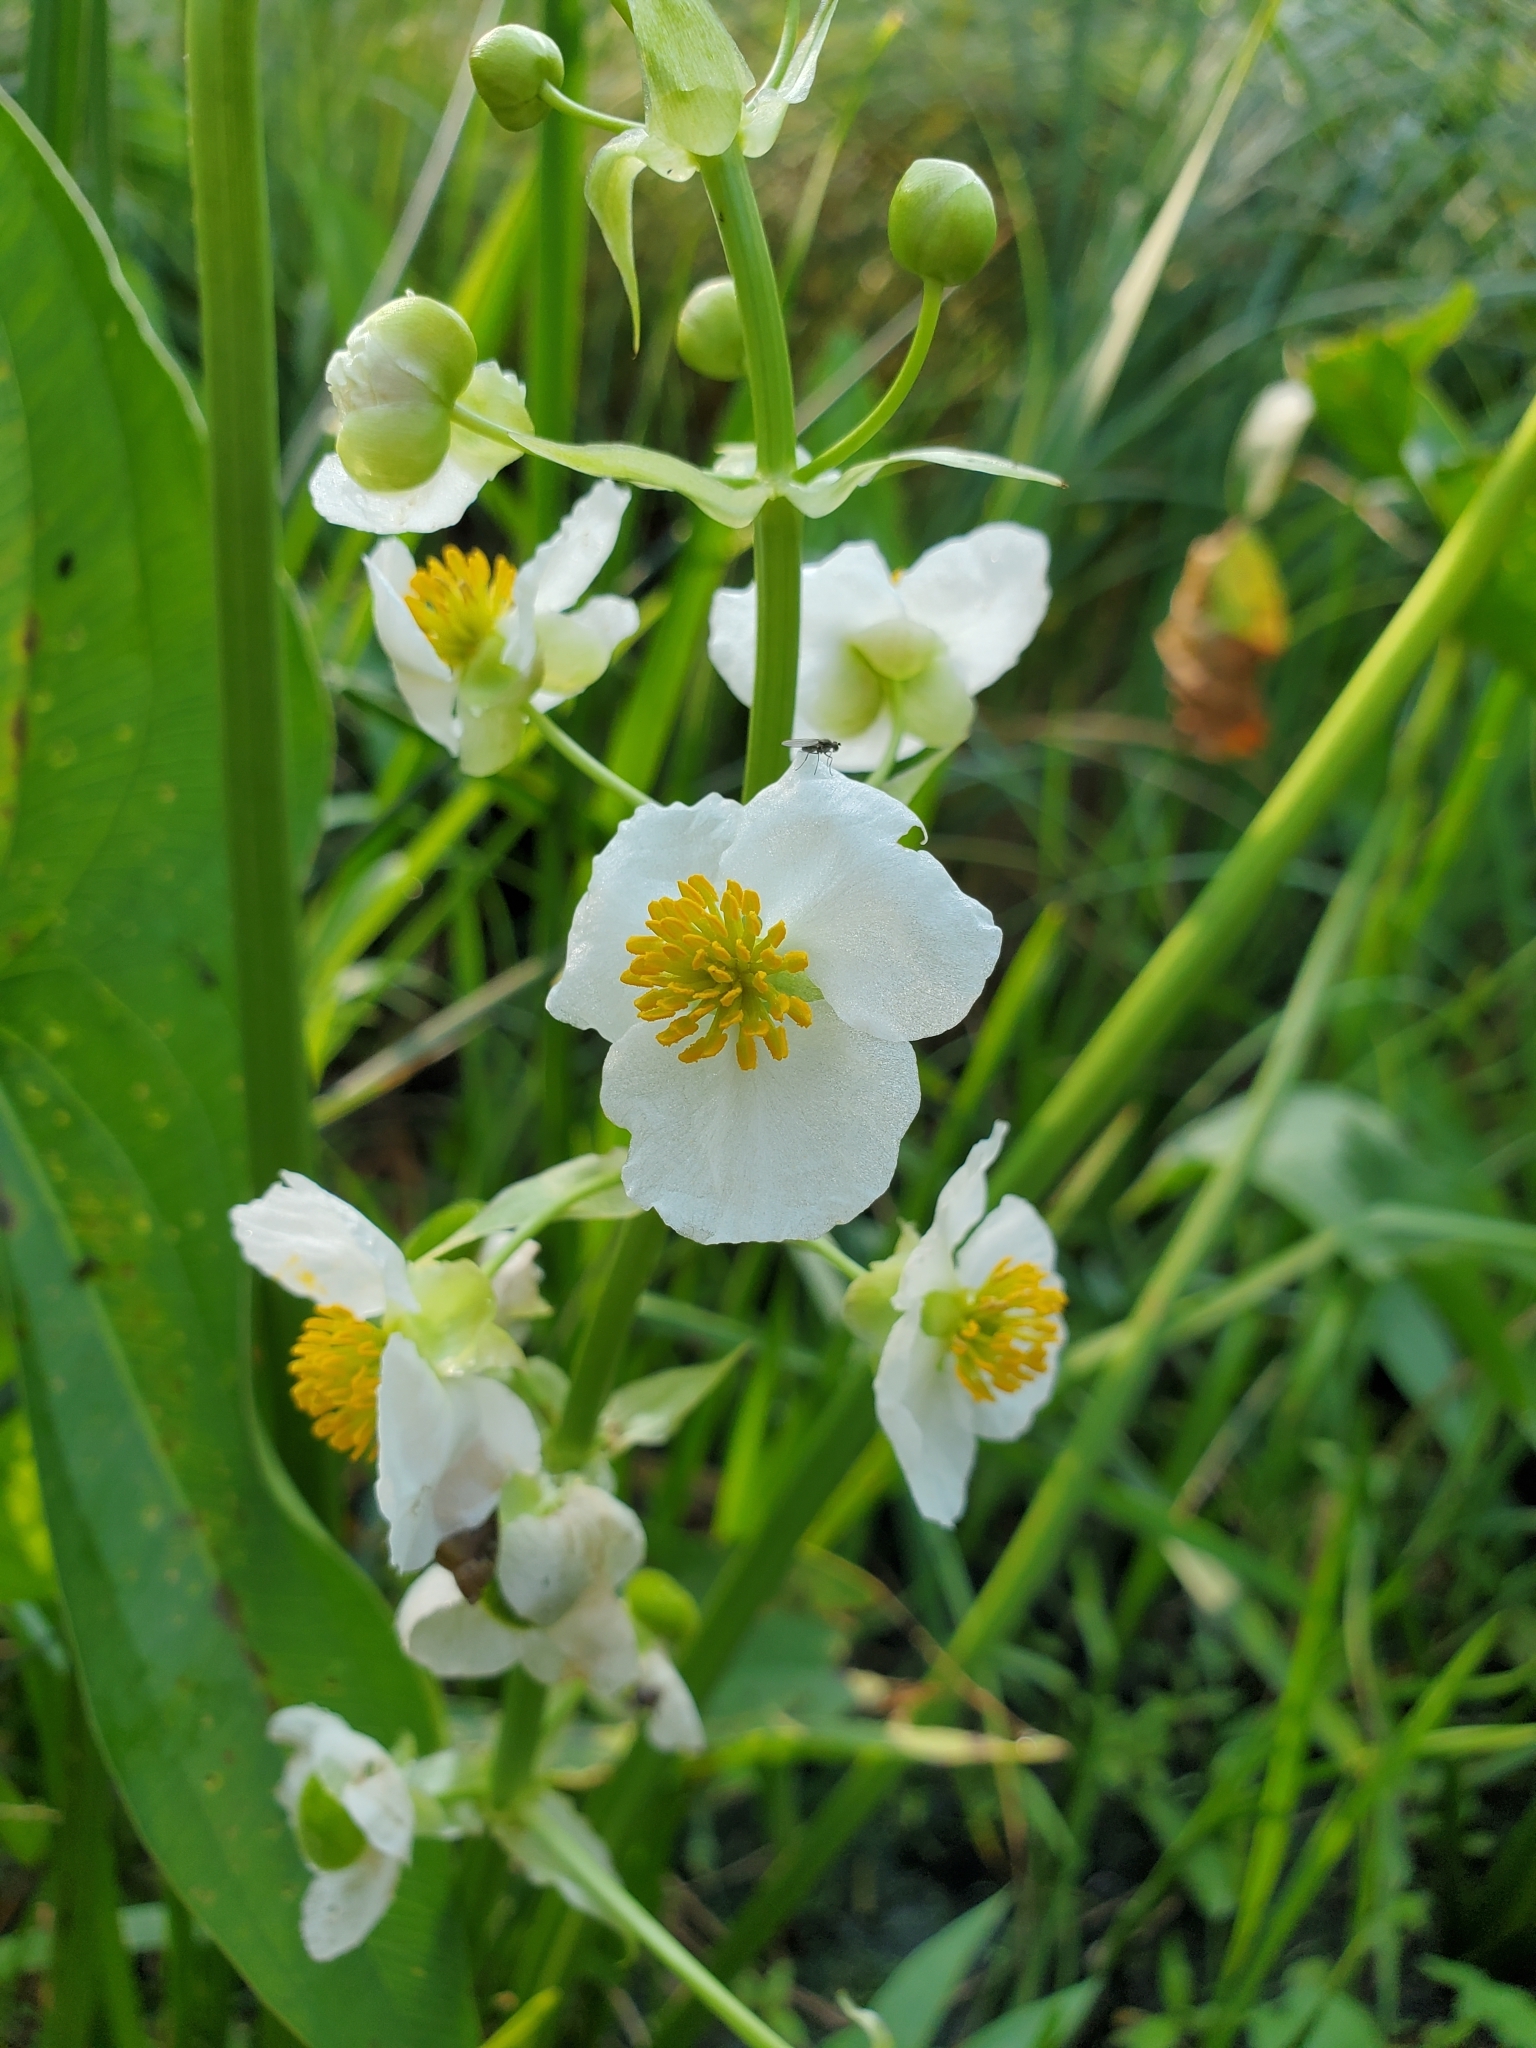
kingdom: Plantae
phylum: Tracheophyta
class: Liliopsida
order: Alismatales
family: Alismataceae
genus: Sagittaria
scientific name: Sagittaria brevirostra
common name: Midwestern arrowhead
